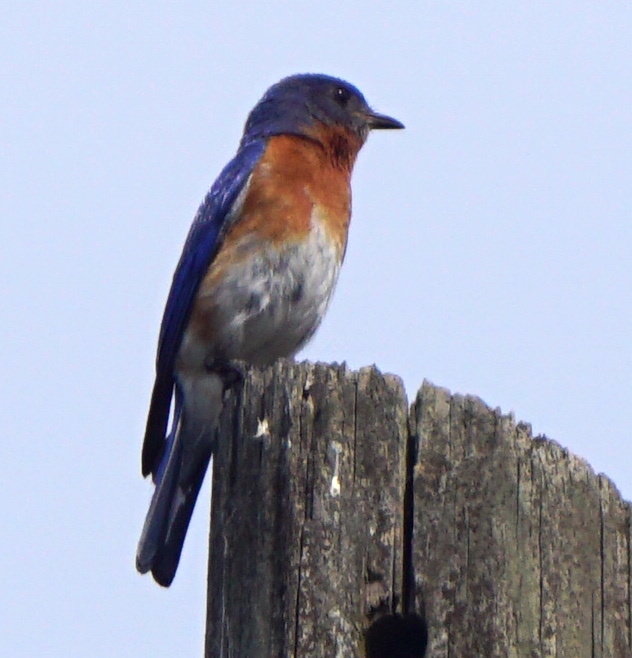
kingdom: Animalia
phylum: Chordata
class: Aves
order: Passeriformes
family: Turdidae
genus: Sialia
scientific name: Sialia sialis
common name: Eastern bluebird
